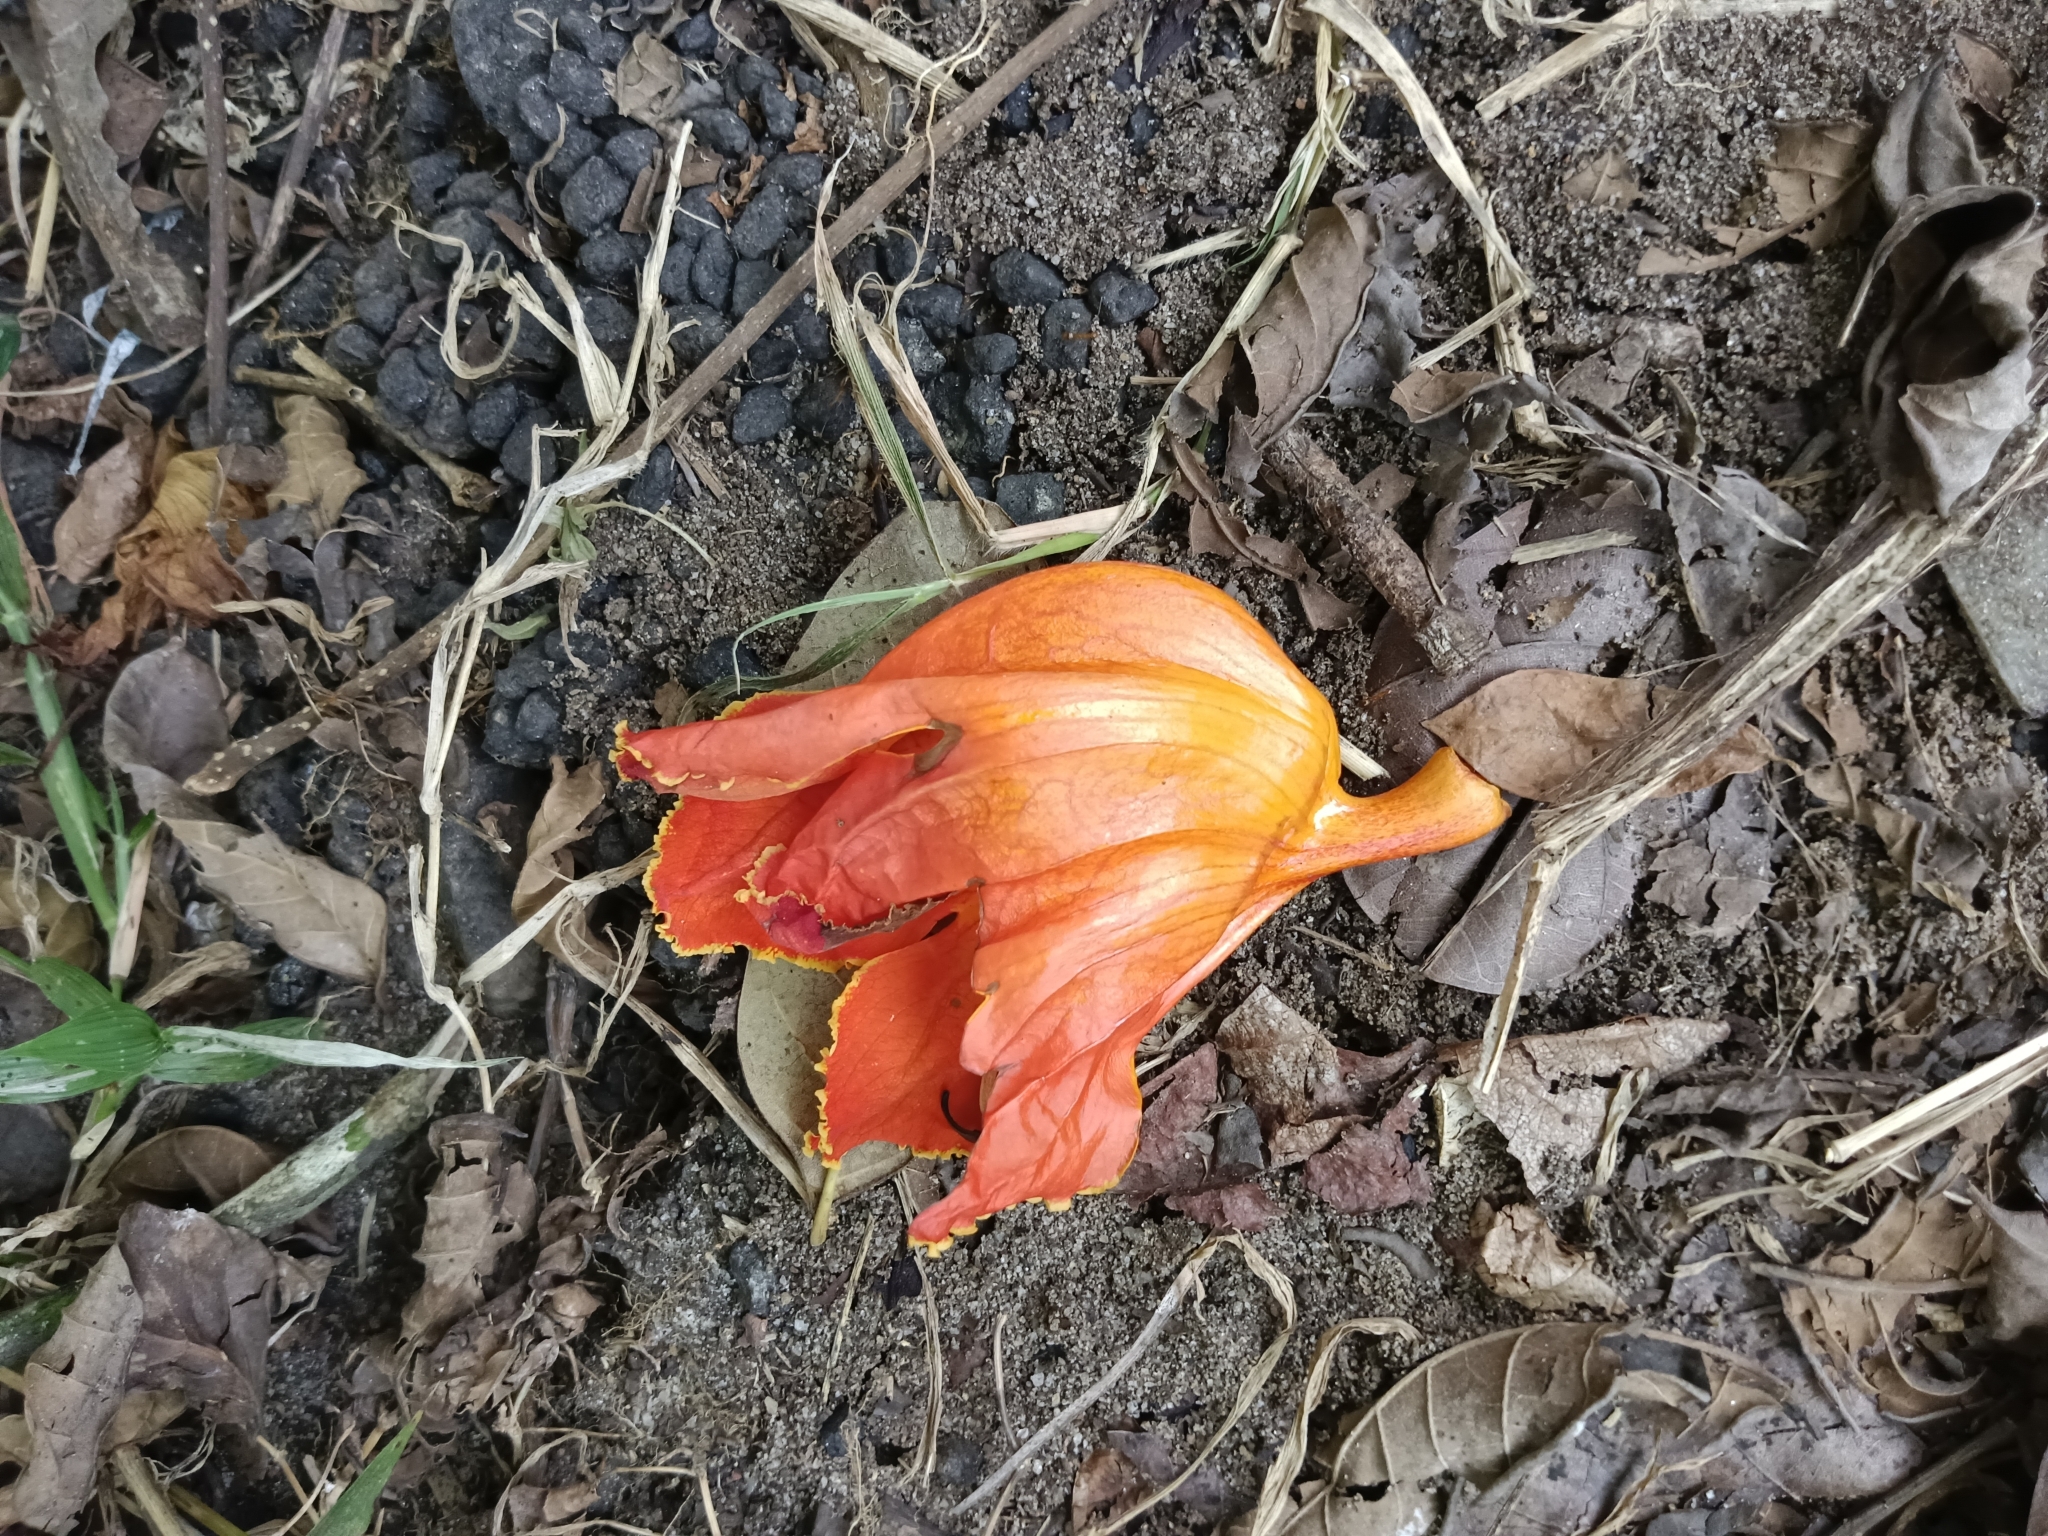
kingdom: Plantae
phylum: Tracheophyta
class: Magnoliopsida
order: Lamiales
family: Bignoniaceae
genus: Spathodea
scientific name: Spathodea campanulata
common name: African tuliptree
